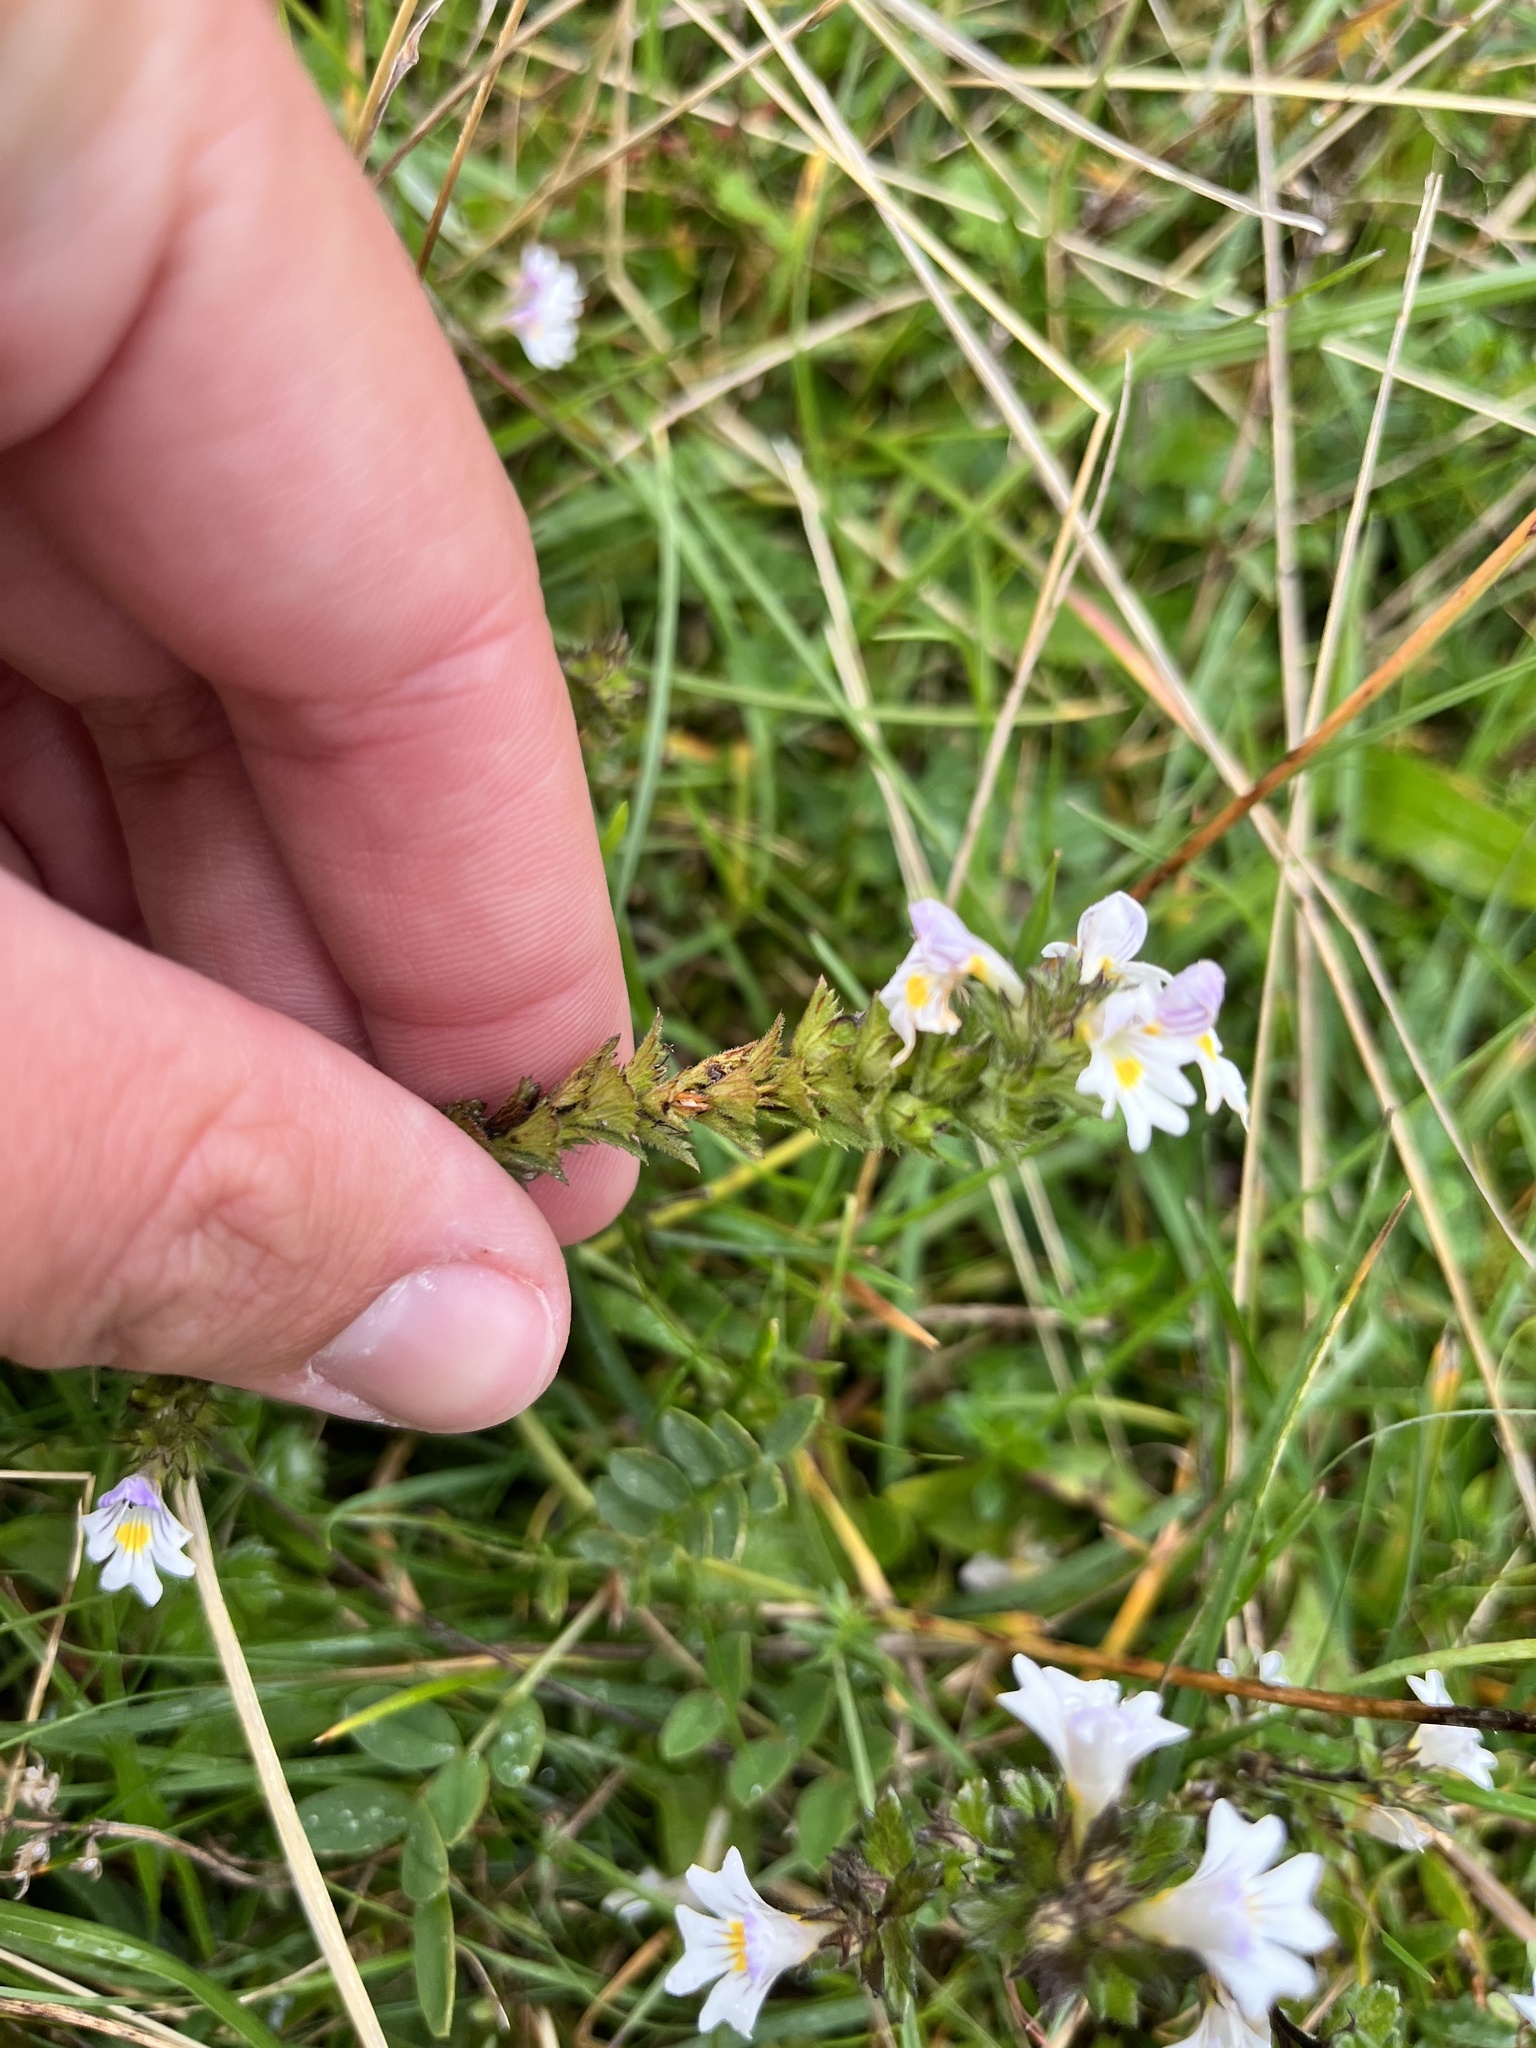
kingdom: Plantae
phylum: Tracheophyta
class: Magnoliopsida
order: Lamiales
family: Orobanchaceae
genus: Euphrasia
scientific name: Euphrasia officinalis
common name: Eyebright
